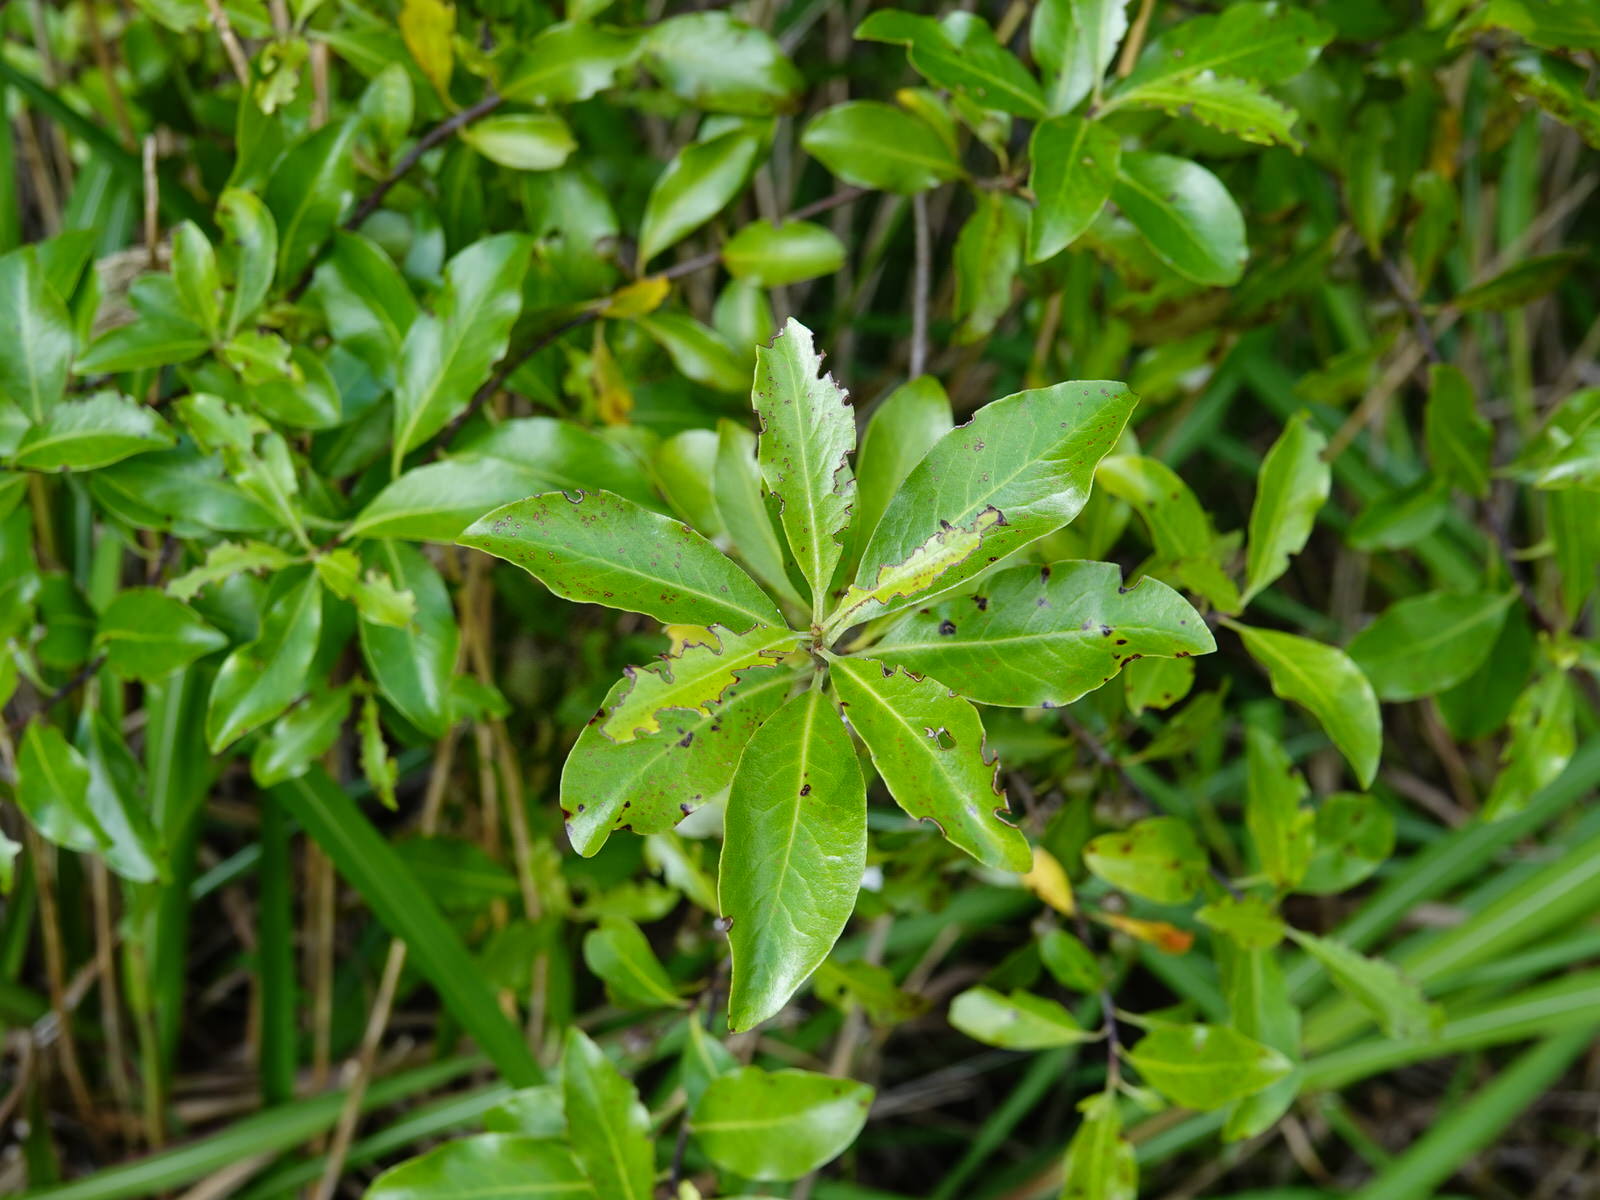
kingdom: Plantae
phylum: Tracheophyta
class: Magnoliopsida
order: Apiales
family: Pittosporaceae
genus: Pittosporum
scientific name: Pittosporum tenuifolium
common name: Kohuhu
